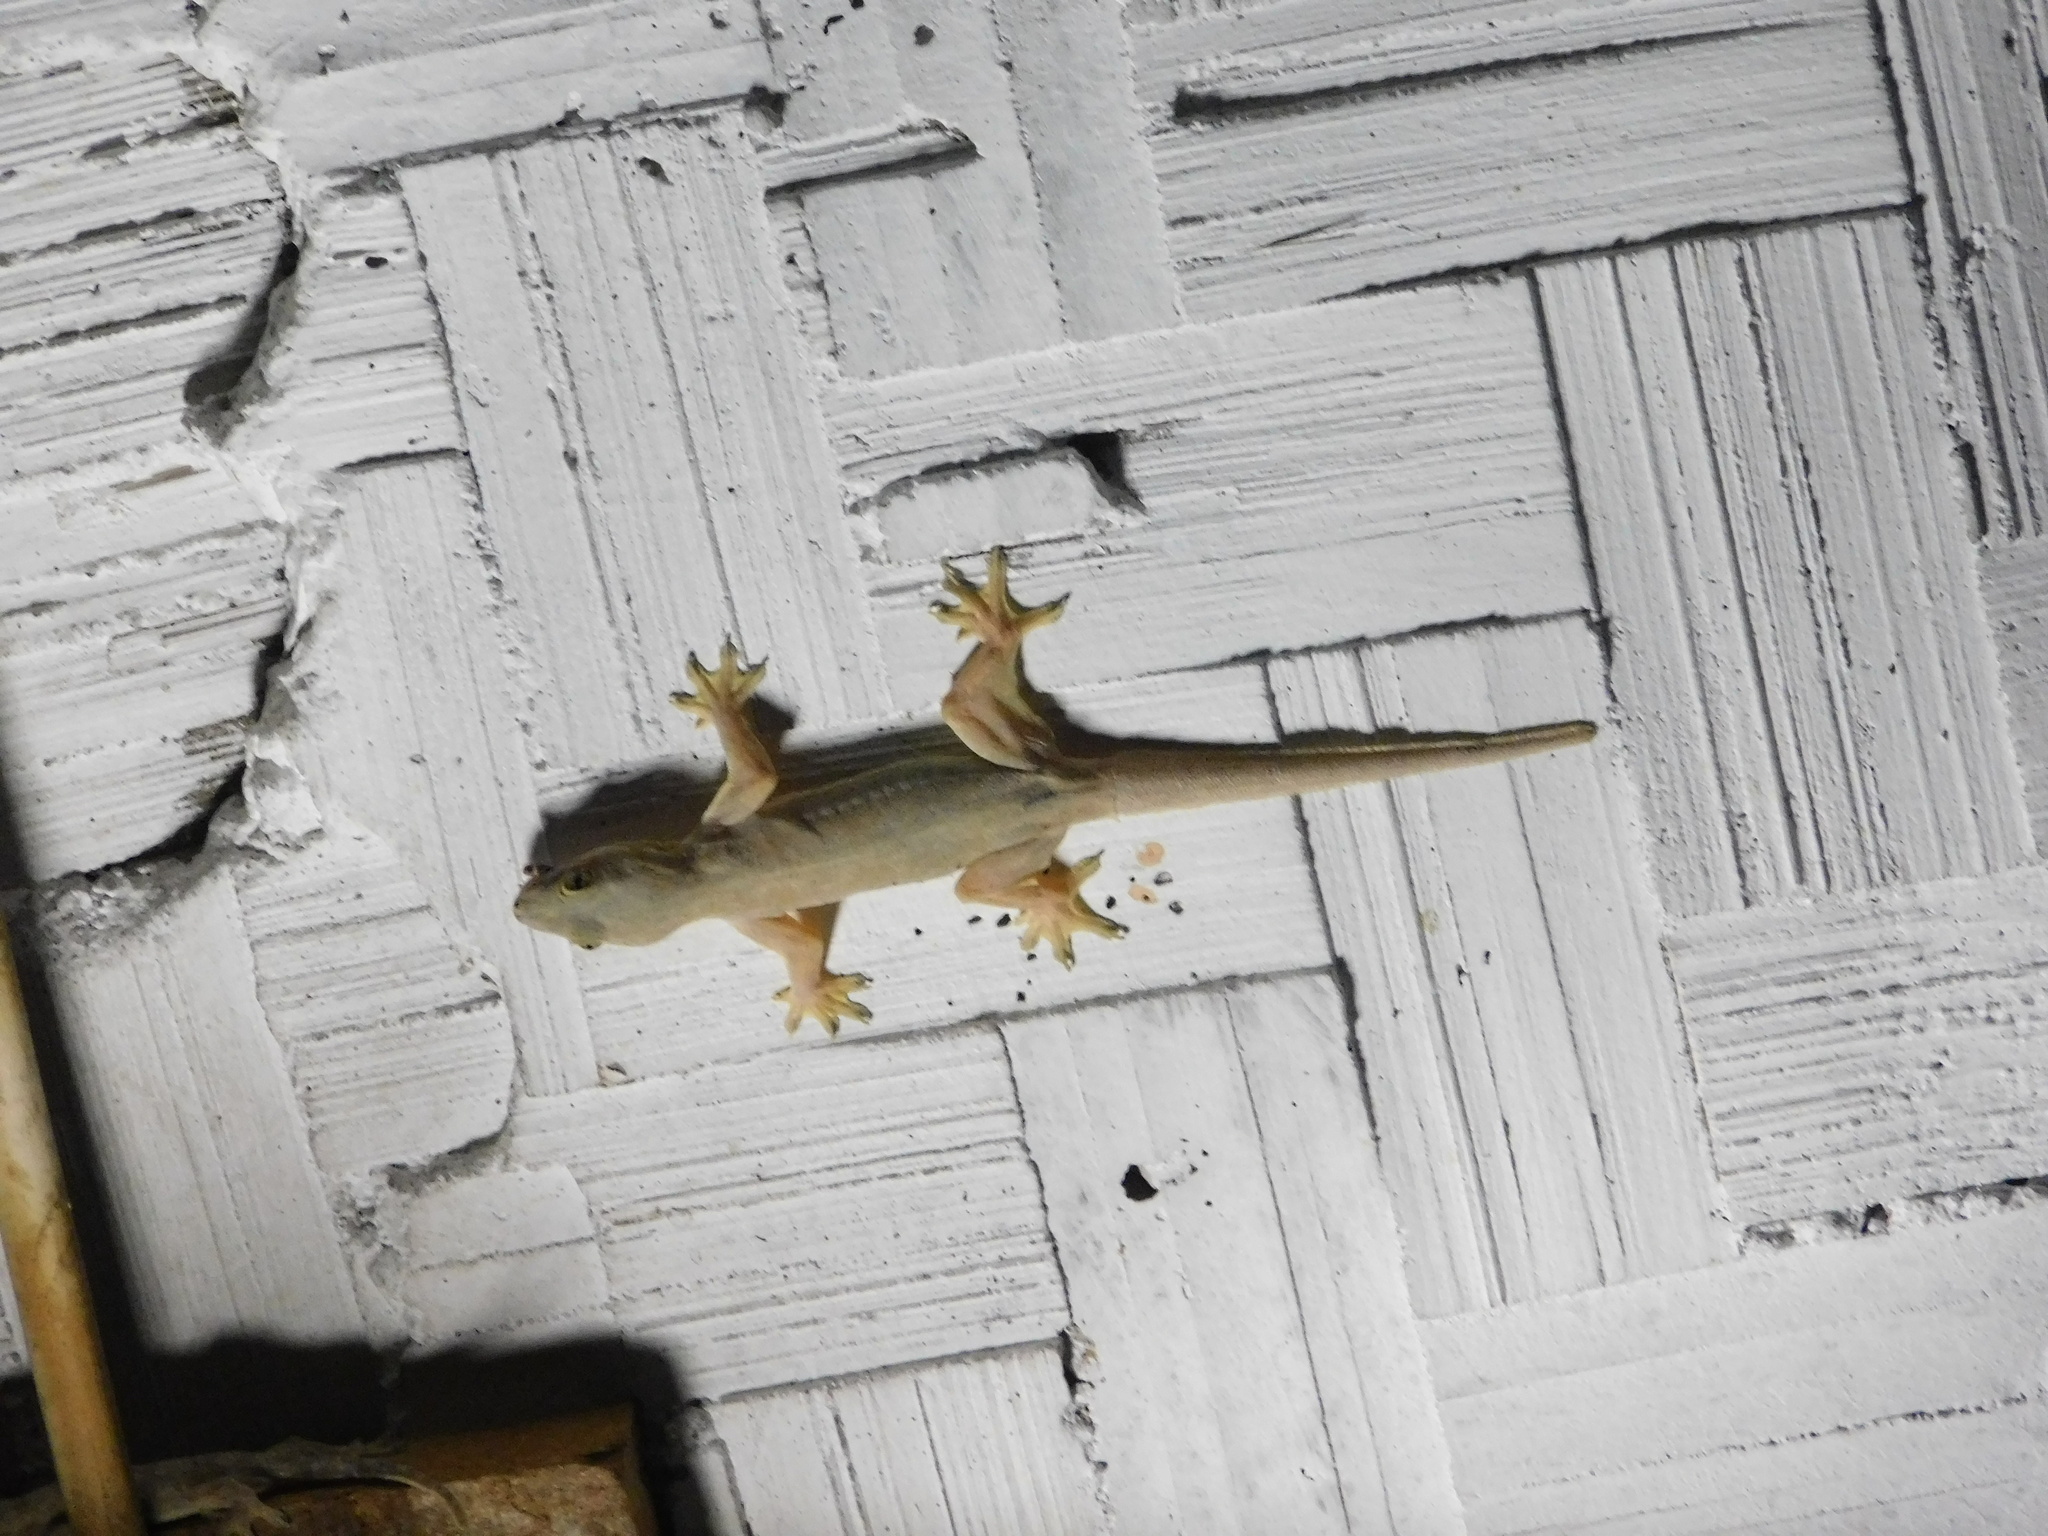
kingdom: Animalia
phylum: Chordata
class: Squamata
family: Gekkonidae
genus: Hemidactylus
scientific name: Hemidactylus platyurus
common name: Flat-tailed house gecko
